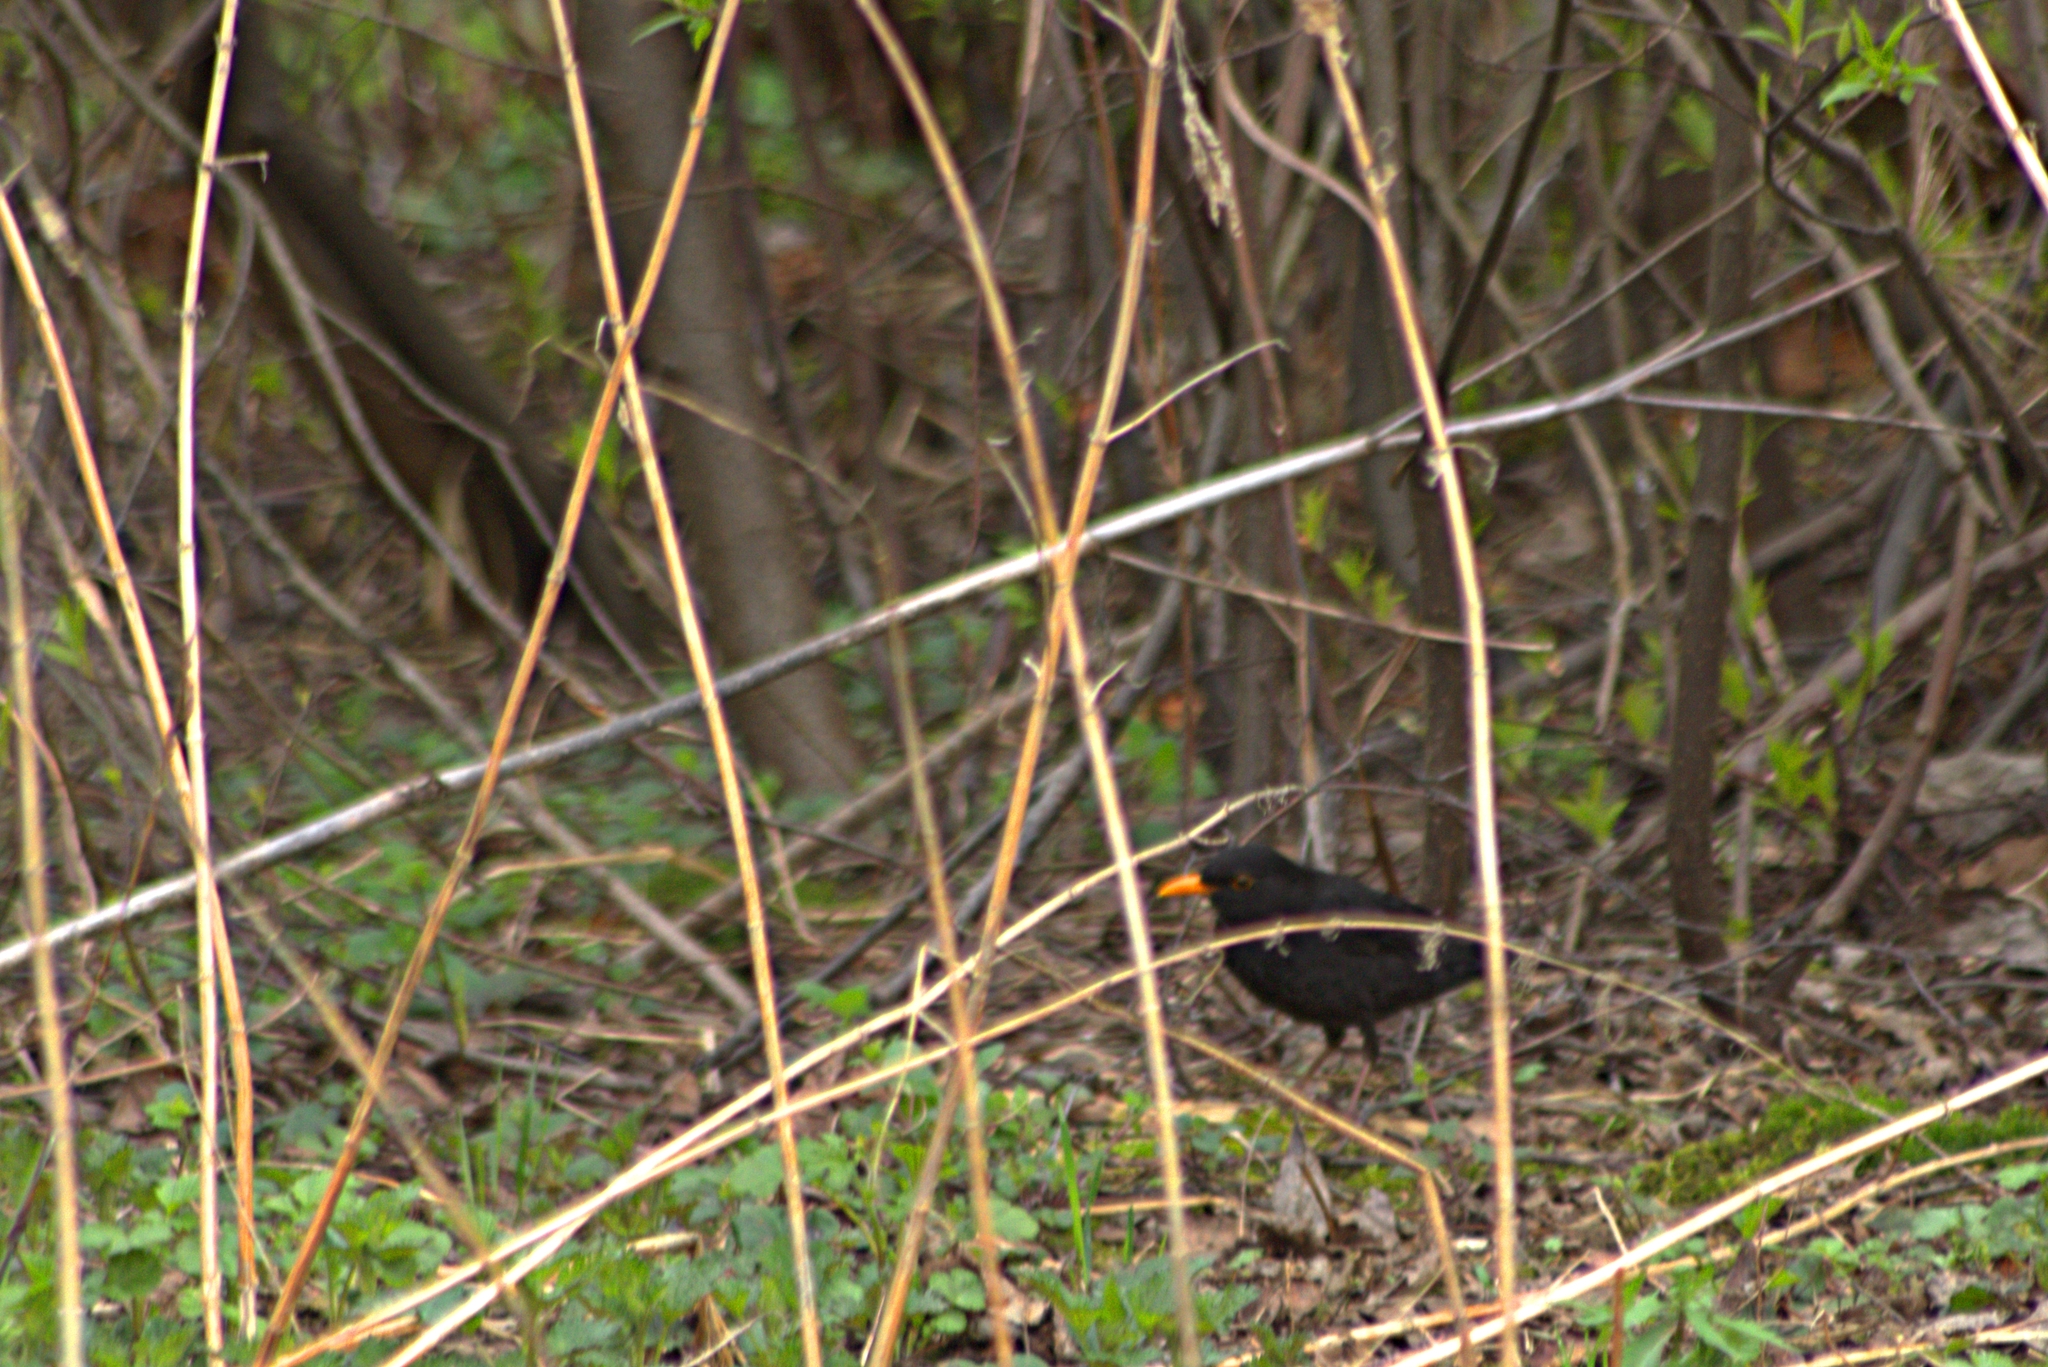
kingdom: Animalia
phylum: Chordata
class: Aves
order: Passeriformes
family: Turdidae
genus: Turdus
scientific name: Turdus merula
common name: Common blackbird
